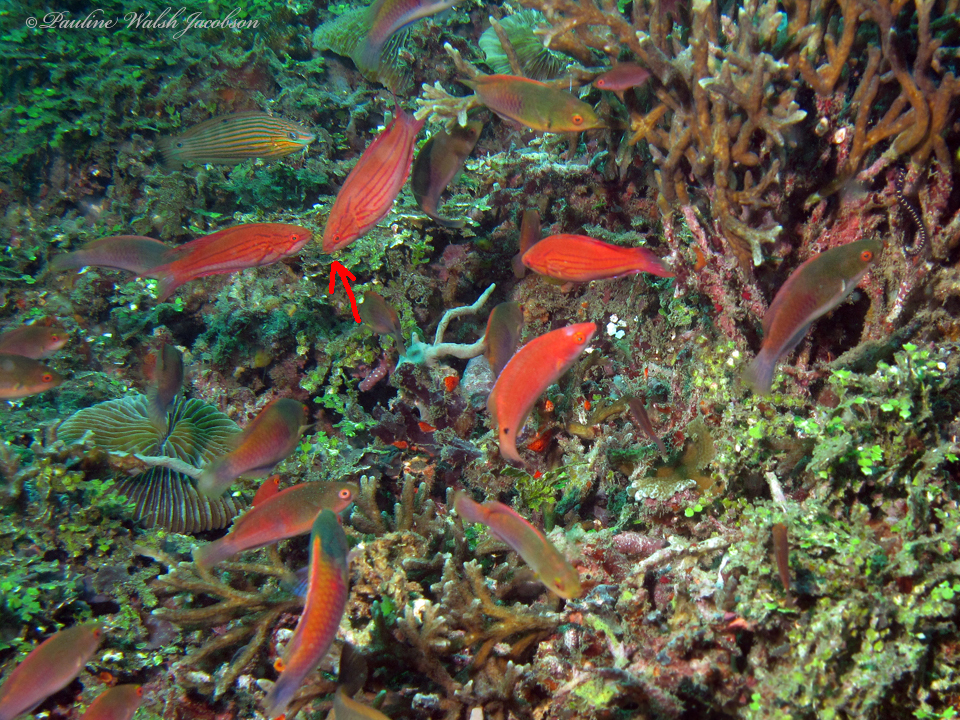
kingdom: Animalia
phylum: Chordata
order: Perciformes
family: Labridae
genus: Paracheilinus
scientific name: Paracheilinus paineorum
